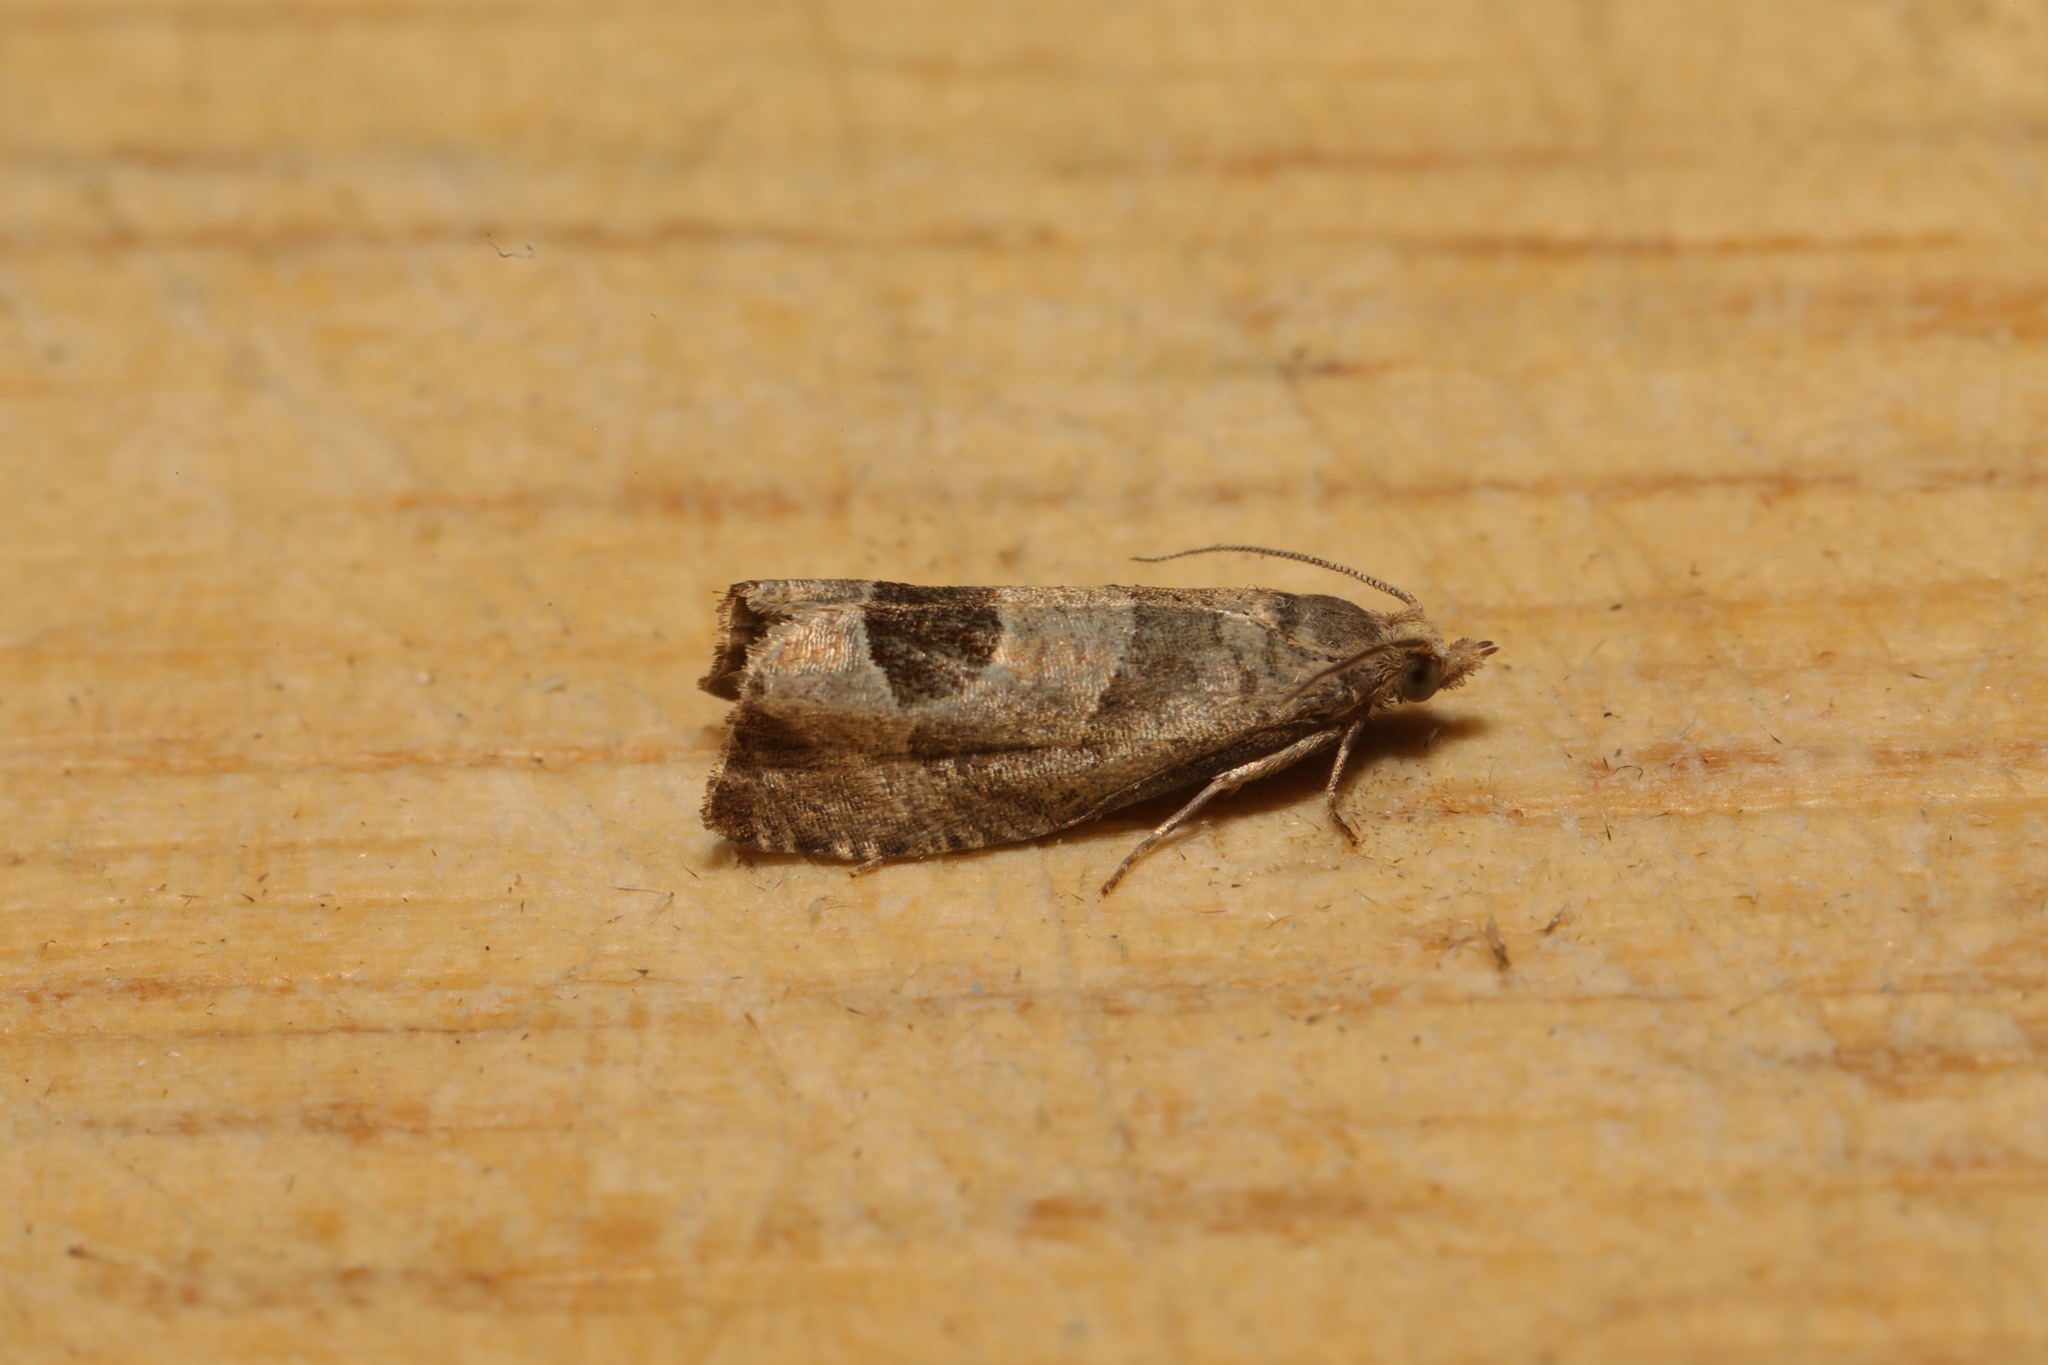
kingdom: Animalia
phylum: Arthropoda
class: Insecta
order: Lepidoptera
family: Tortricidae
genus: Notocelia
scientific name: Notocelia uddmanniana
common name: Bramble shoot moth
